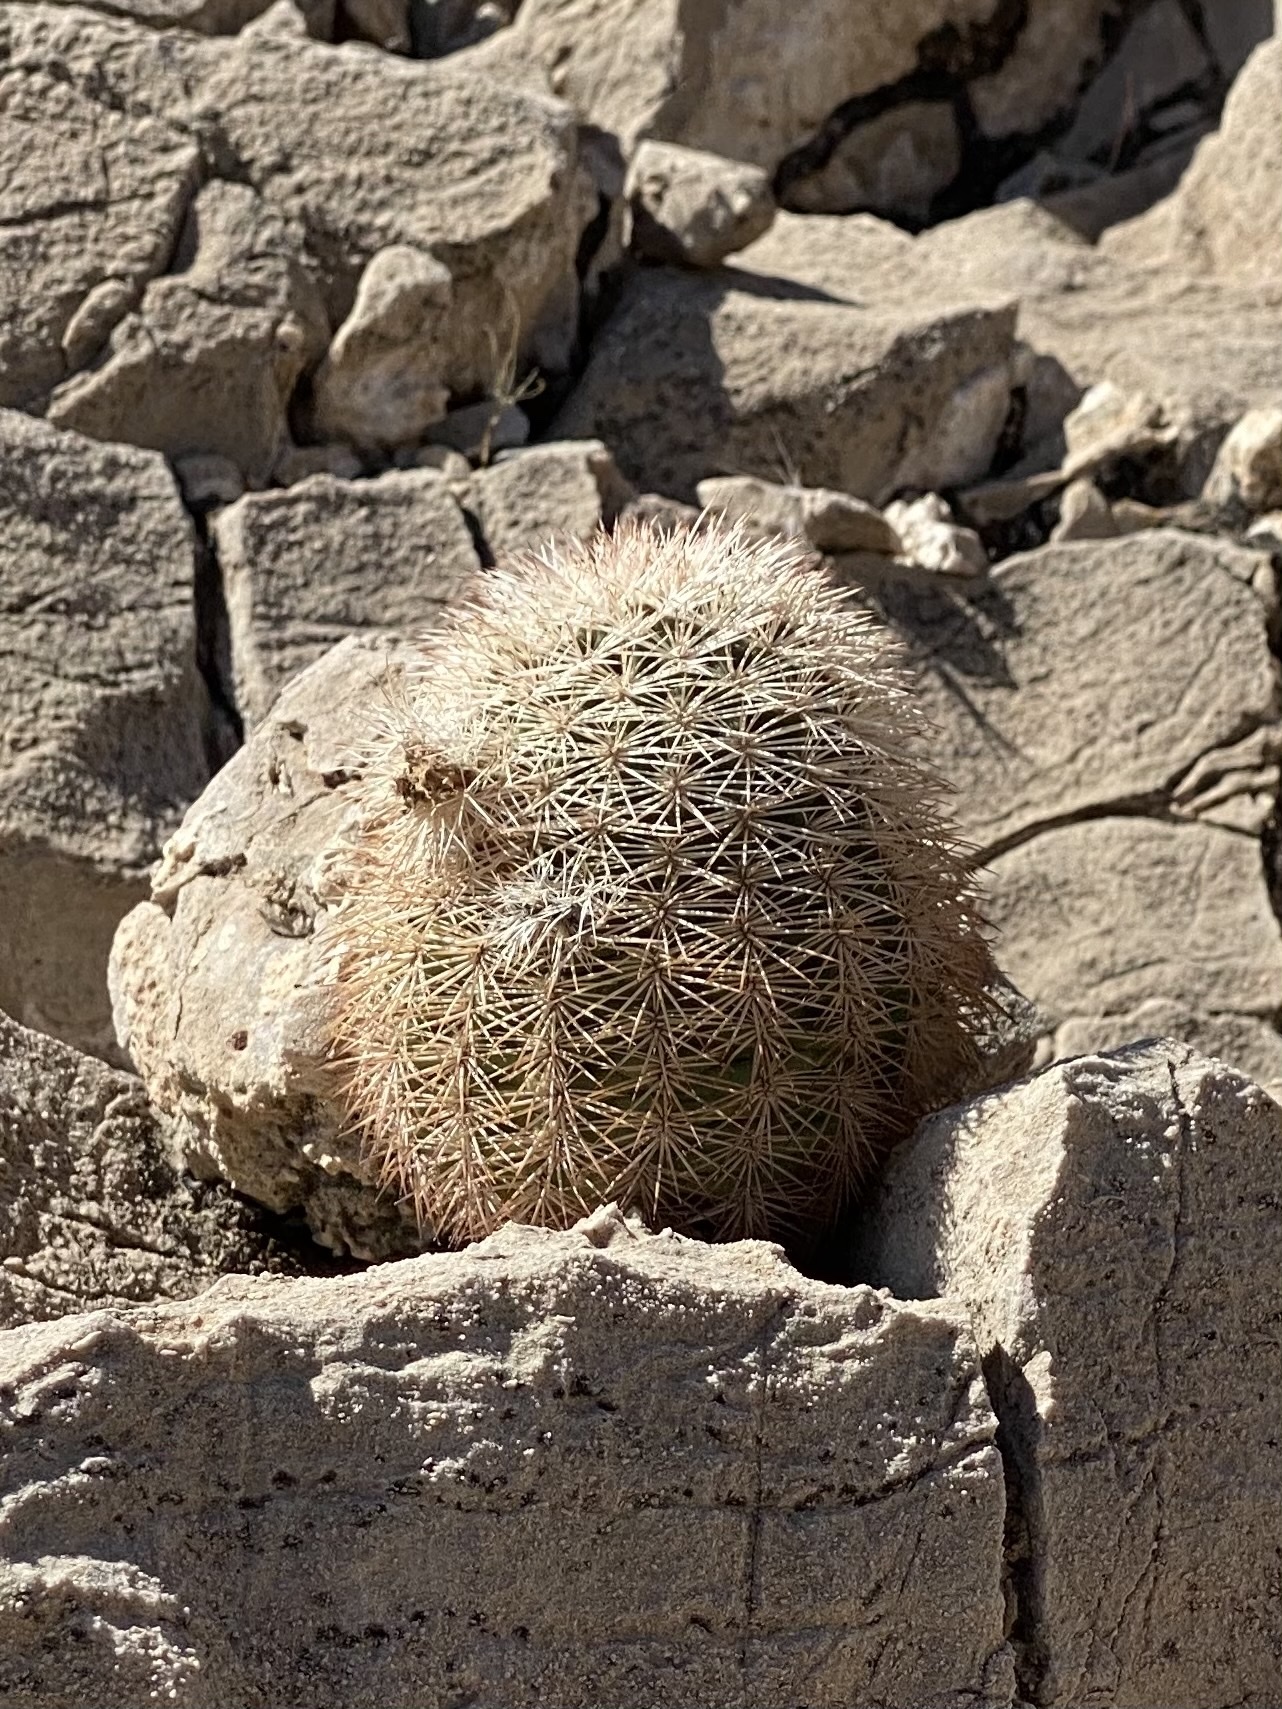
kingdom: Plantae
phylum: Tracheophyta
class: Magnoliopsida
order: Caryophyllales
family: Cactaceae
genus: Echinocereus
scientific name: Echinocereus dasyacanthus
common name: Spiny hedgehog cactus
